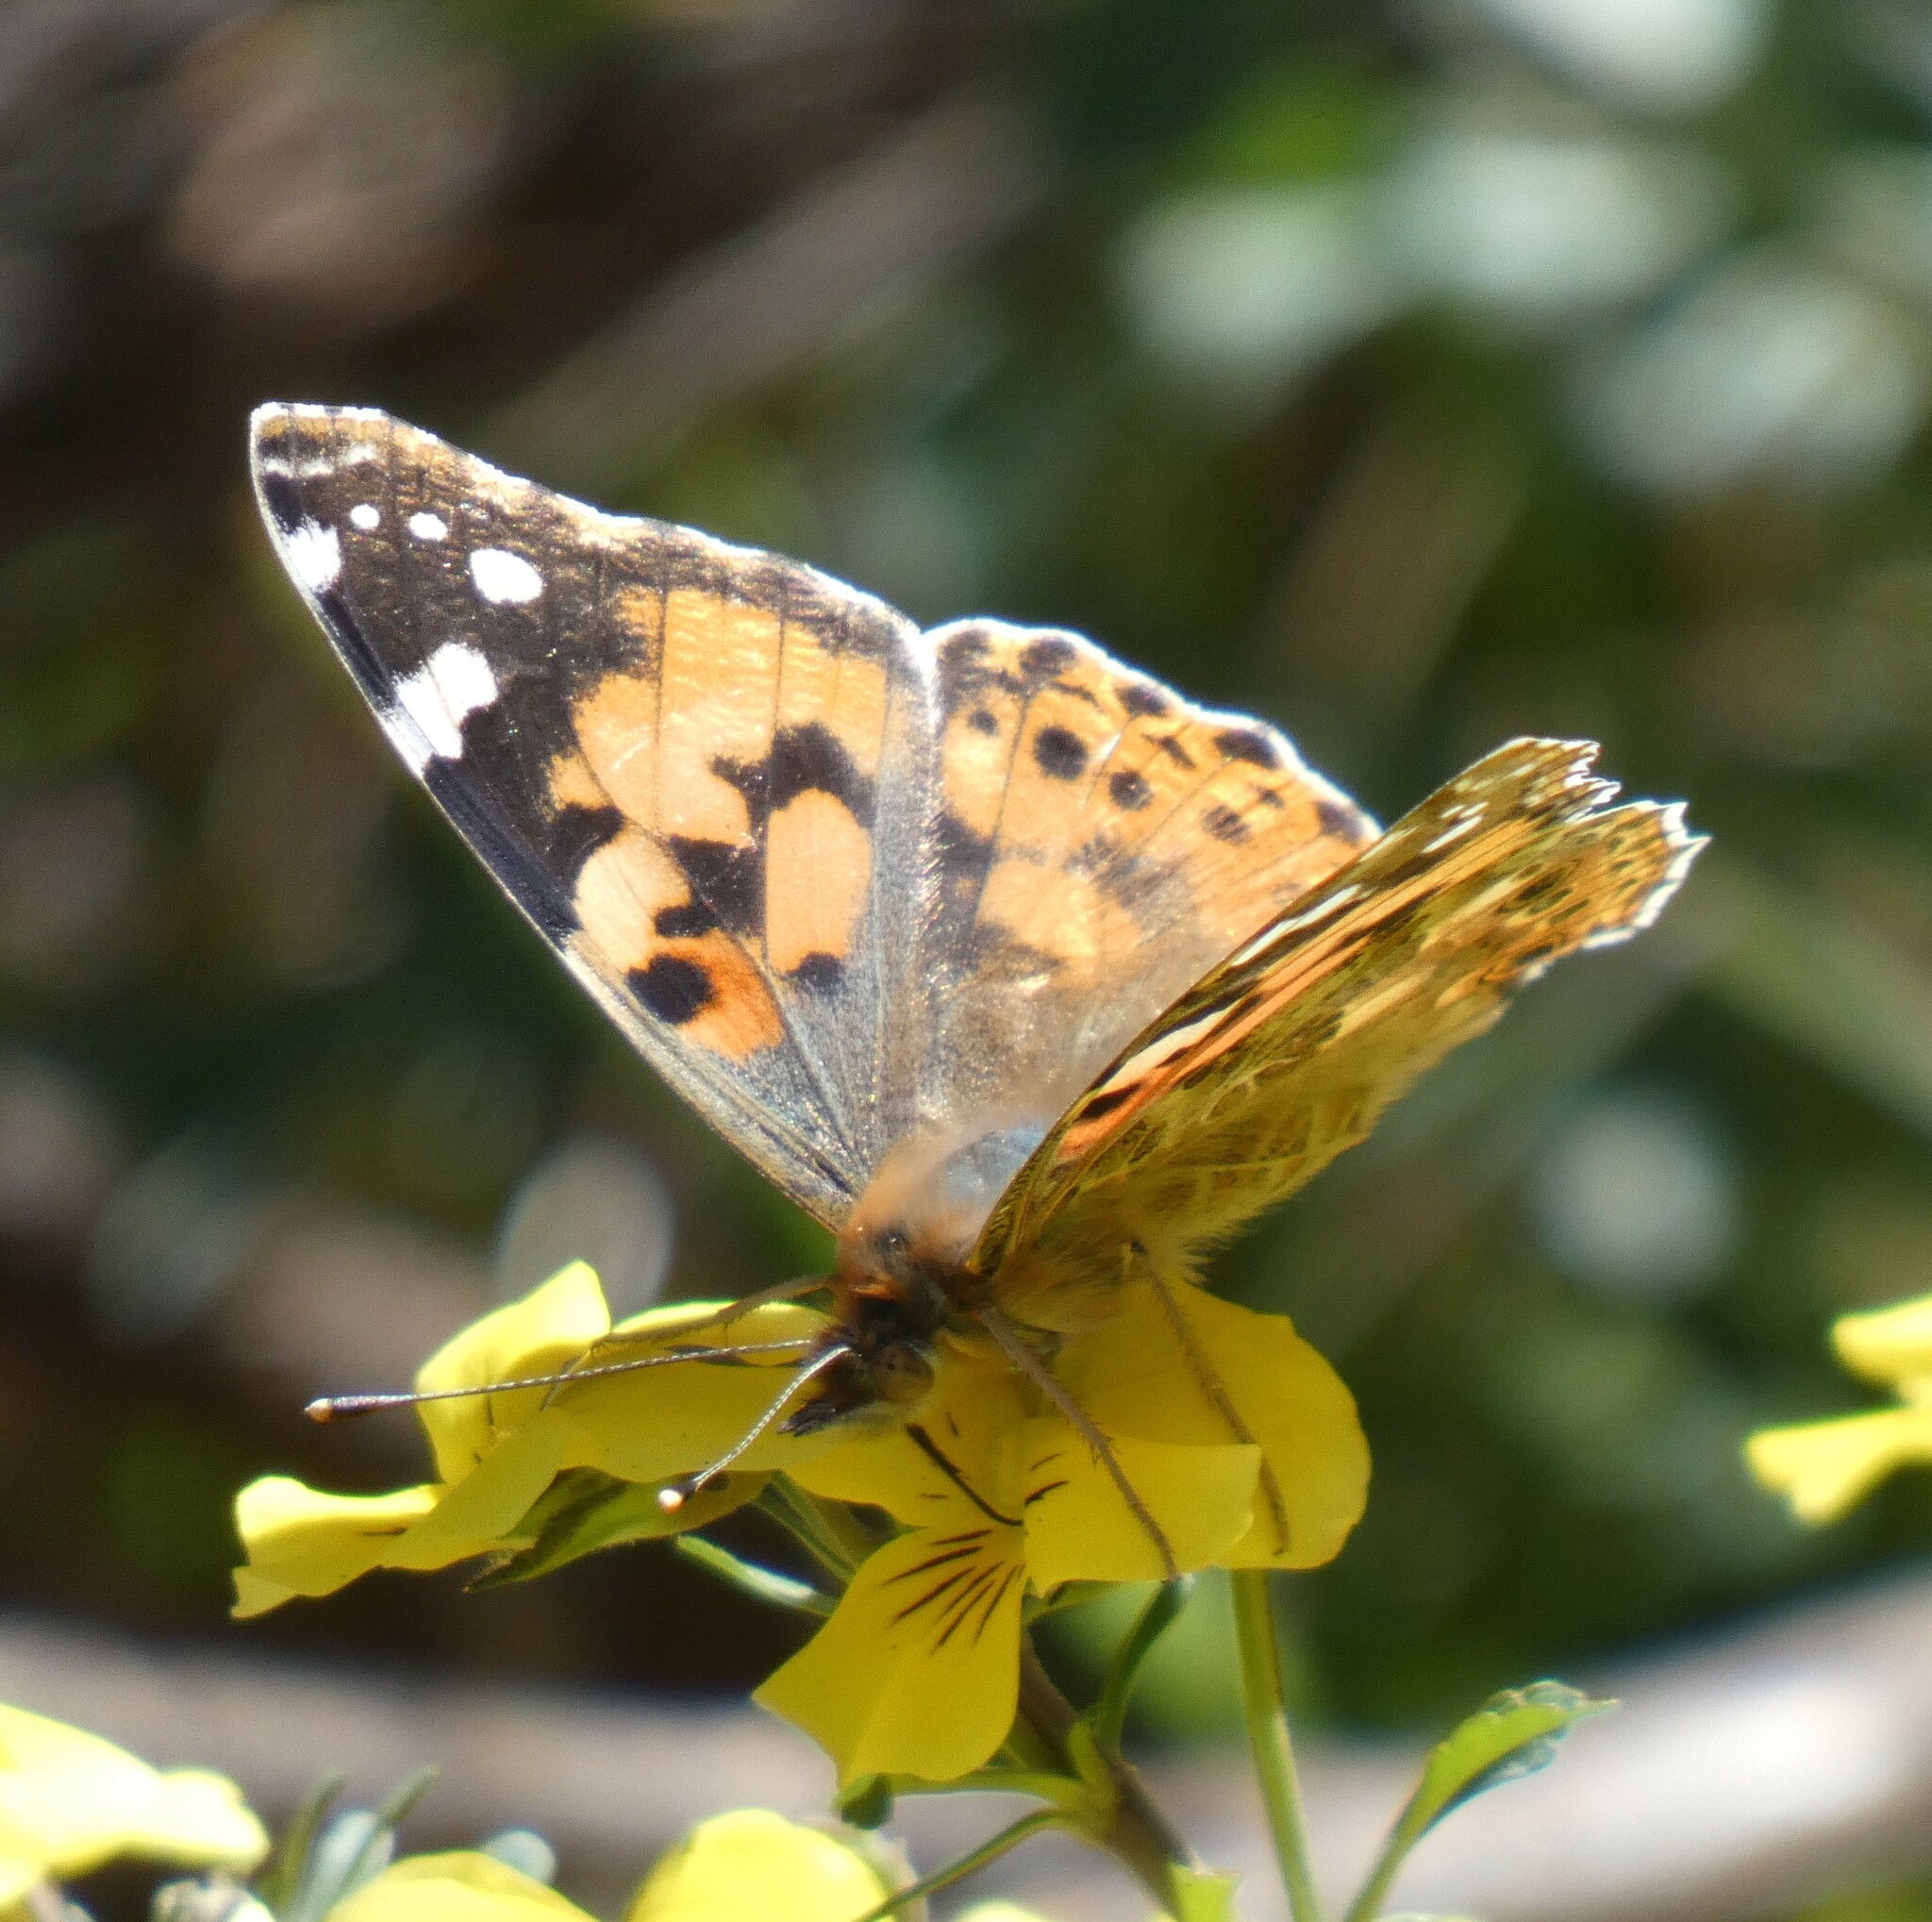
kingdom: Animalia
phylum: Arthropoda
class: Insecta
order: Lepidoptera
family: Nymphalidae
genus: Vanessa
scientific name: Vanessa cardui
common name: Painted lady
